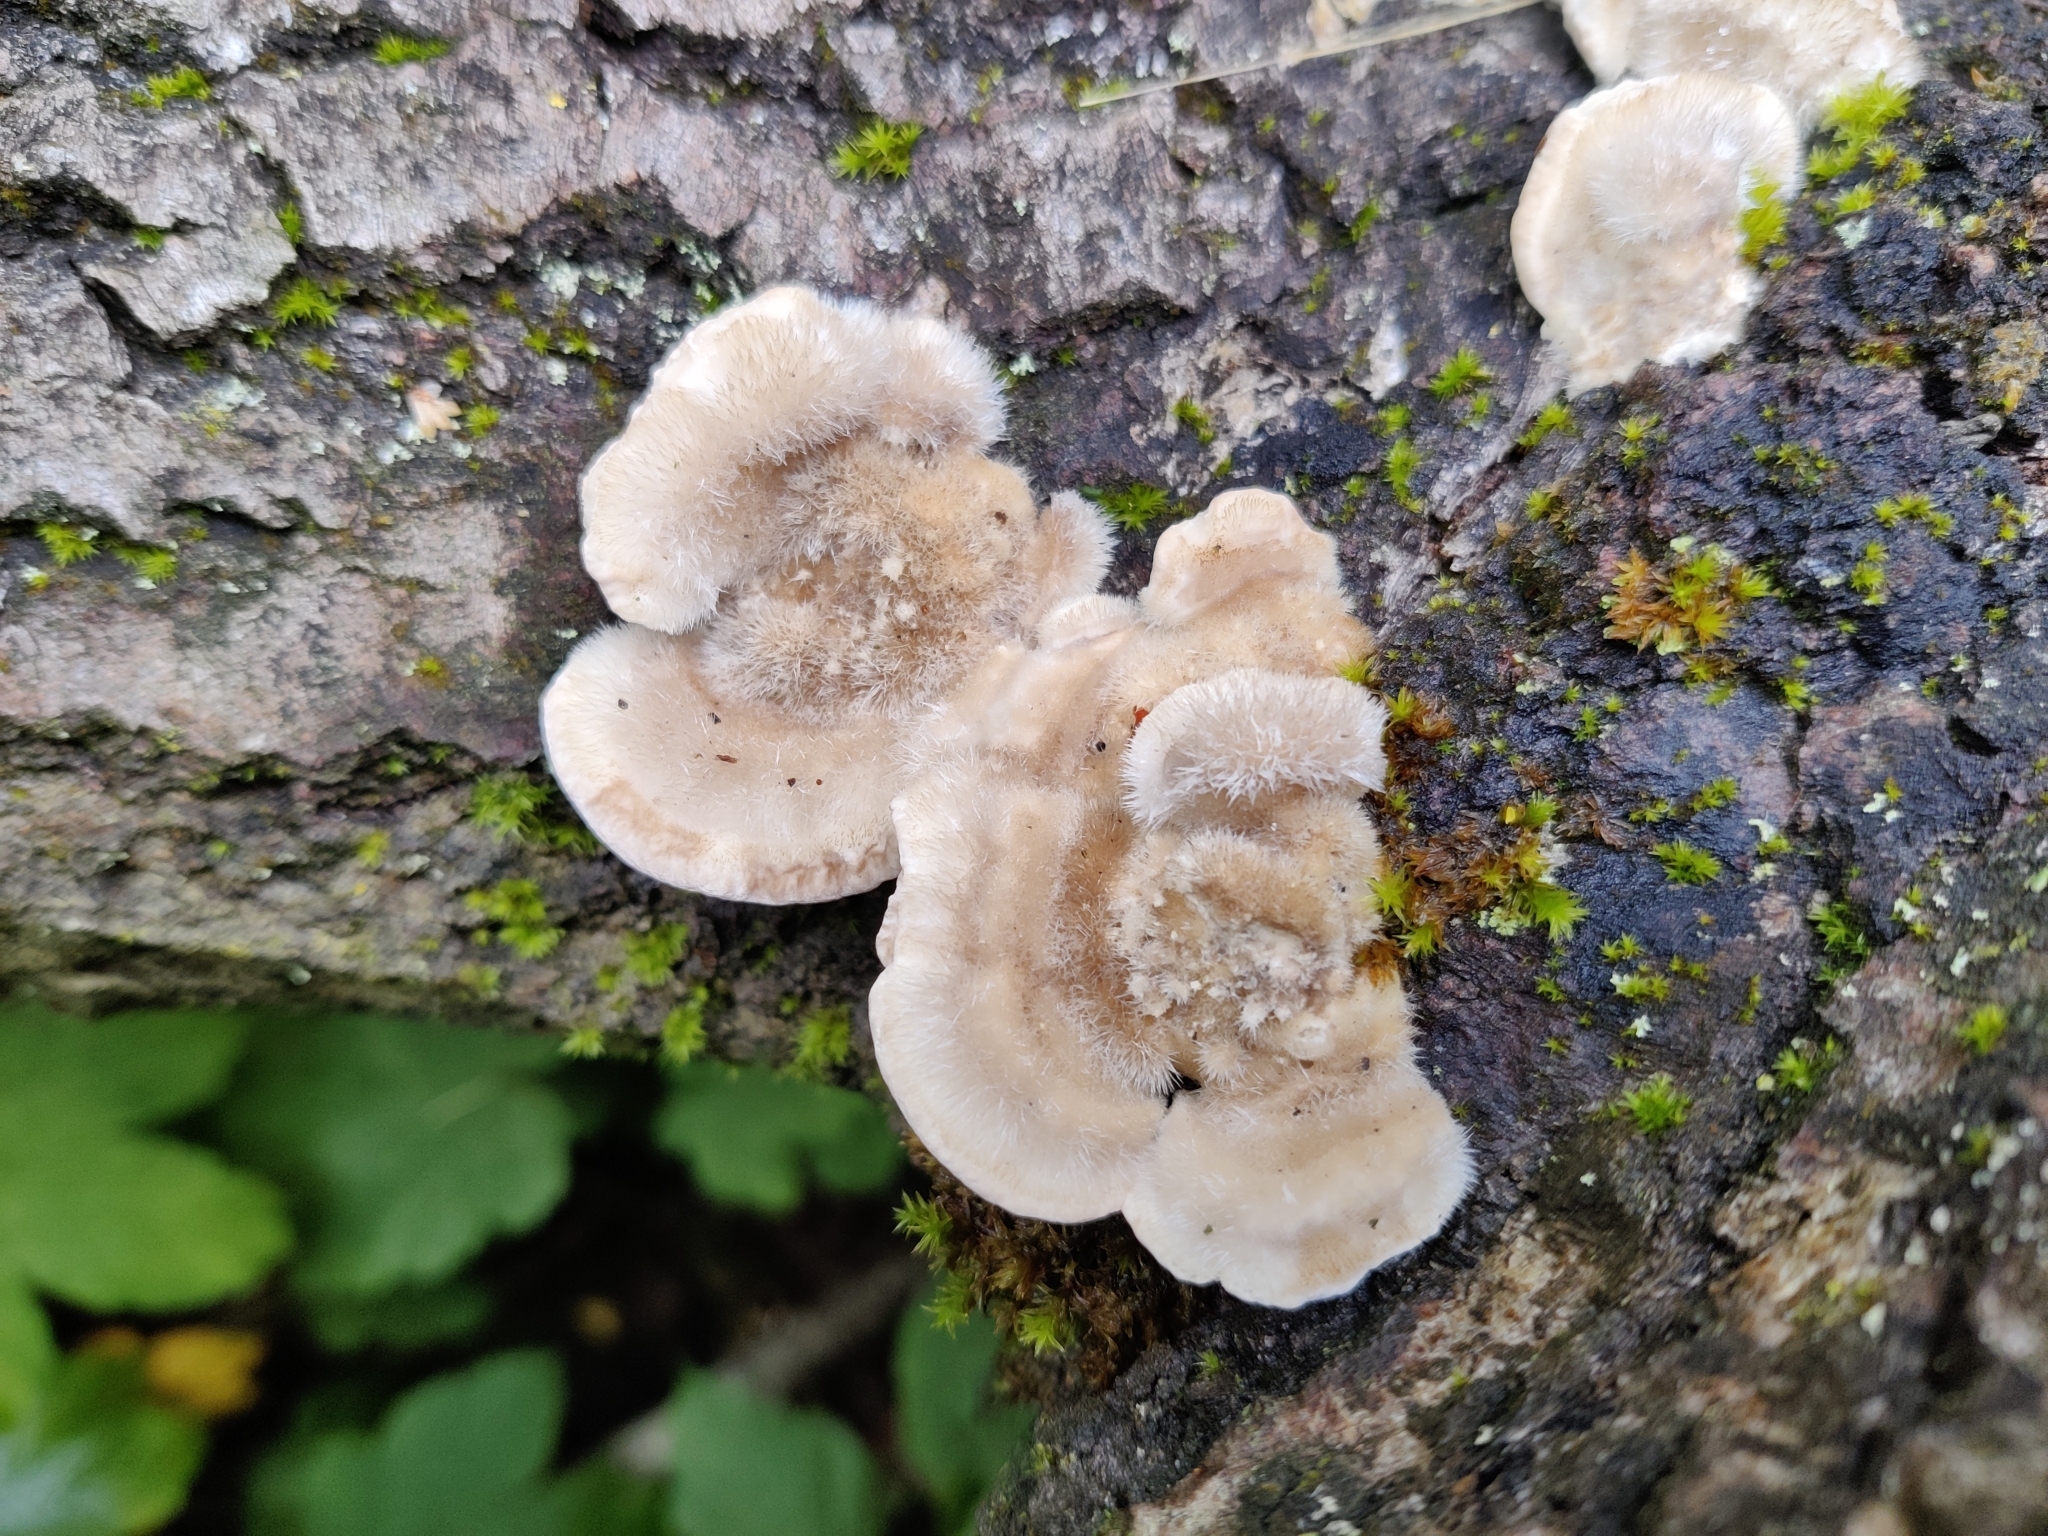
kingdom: Fungi
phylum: Basidiomycota
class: Agaricomycetes
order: Polyporales
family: Polyporaceae
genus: Trametes
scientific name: Trametes hirsuta
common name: Hairy bracket
